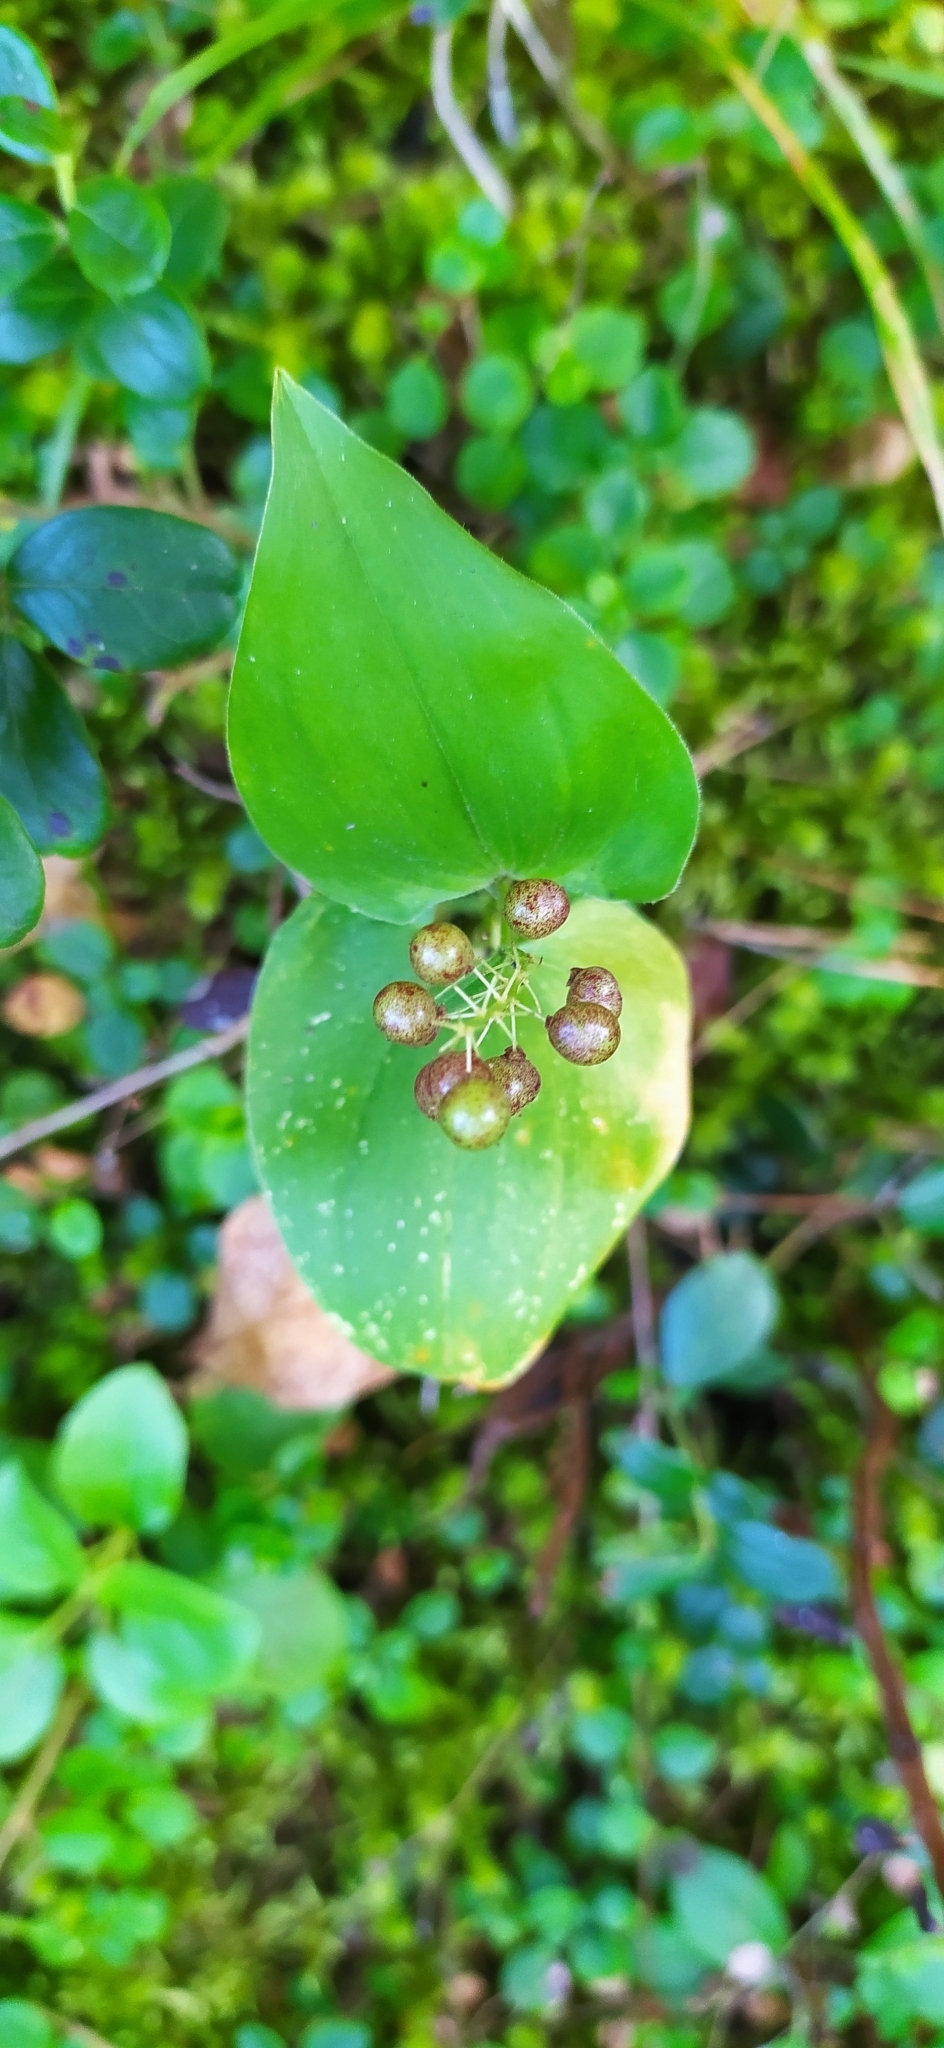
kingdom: Plantae
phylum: Tracheophyta
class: Liliopsida
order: Asparagales
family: Asparagaceae
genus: Maianthemum
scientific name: Maianthemum bifolium
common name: May lily
